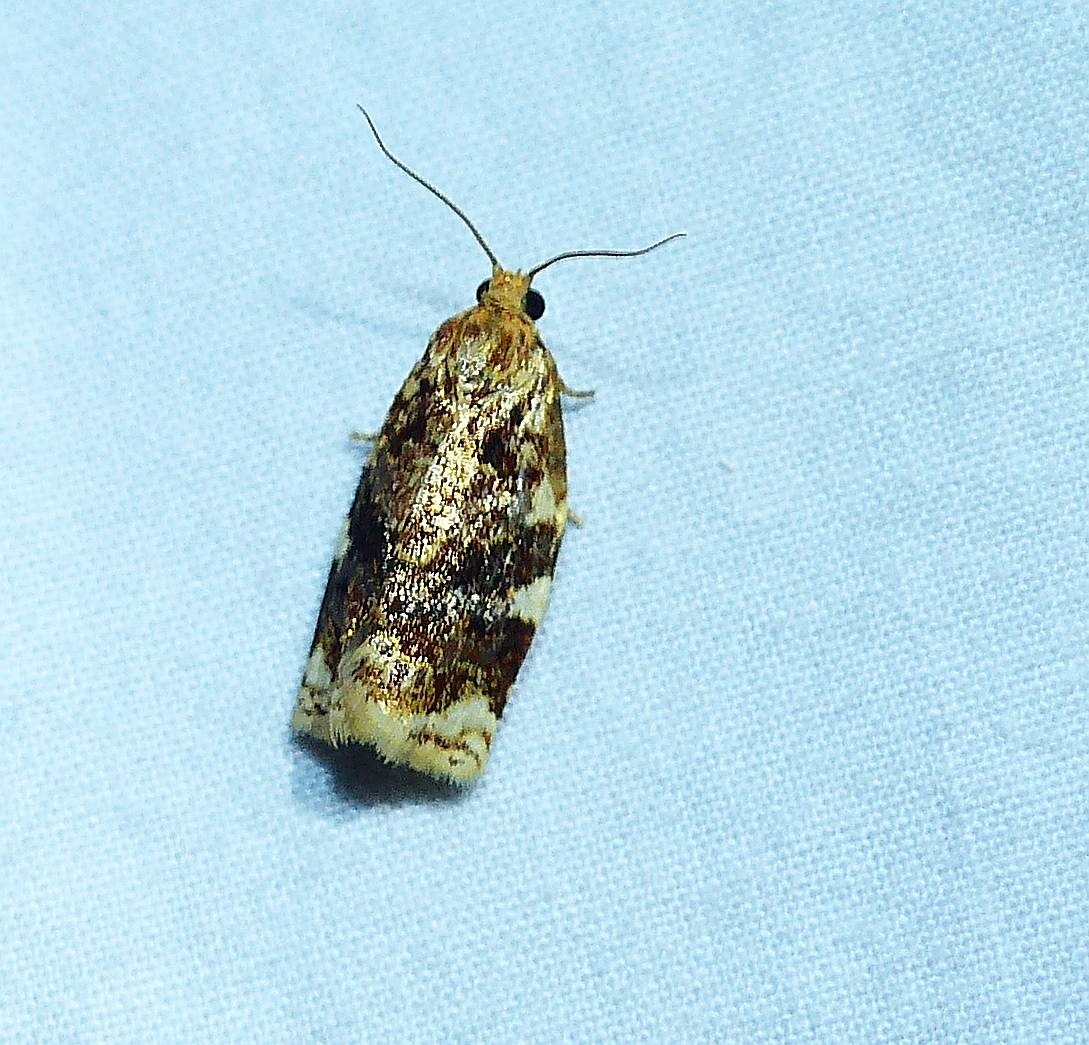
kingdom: Animalia
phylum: Arthropoda
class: Insecta
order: Lepidoptera
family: Tortricidae
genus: Archips
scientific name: Archips argyrospila
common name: Fruit-tree leafroller moth
